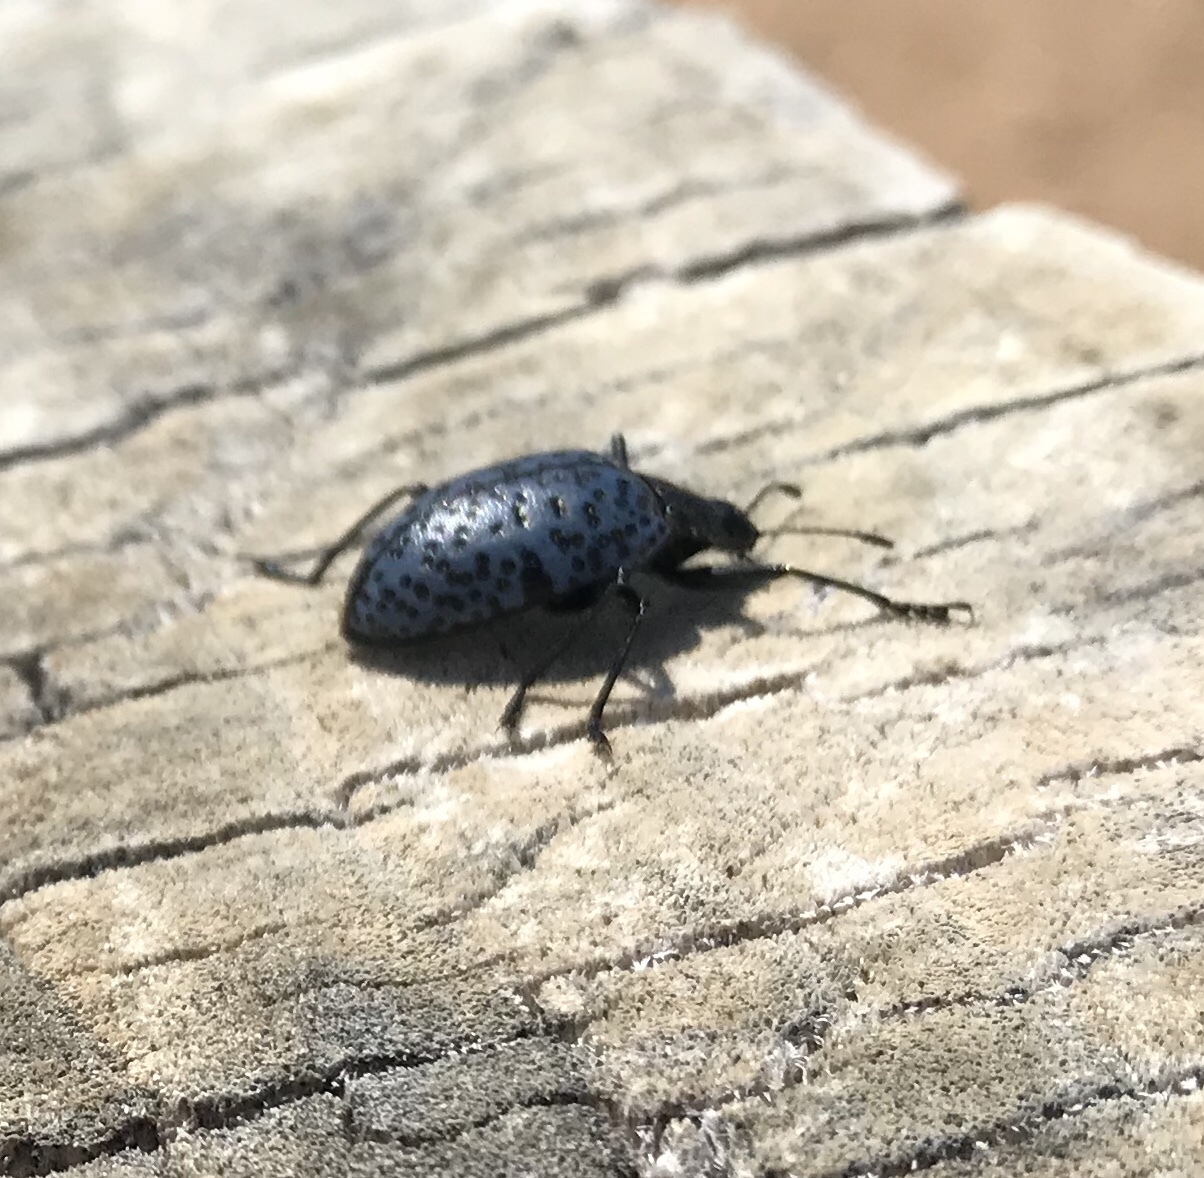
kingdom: Animalia
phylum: Arthropoda
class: Insecta
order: Coleoptera
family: Erotylidae
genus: Gibbifer
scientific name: Gibbifer californicus
